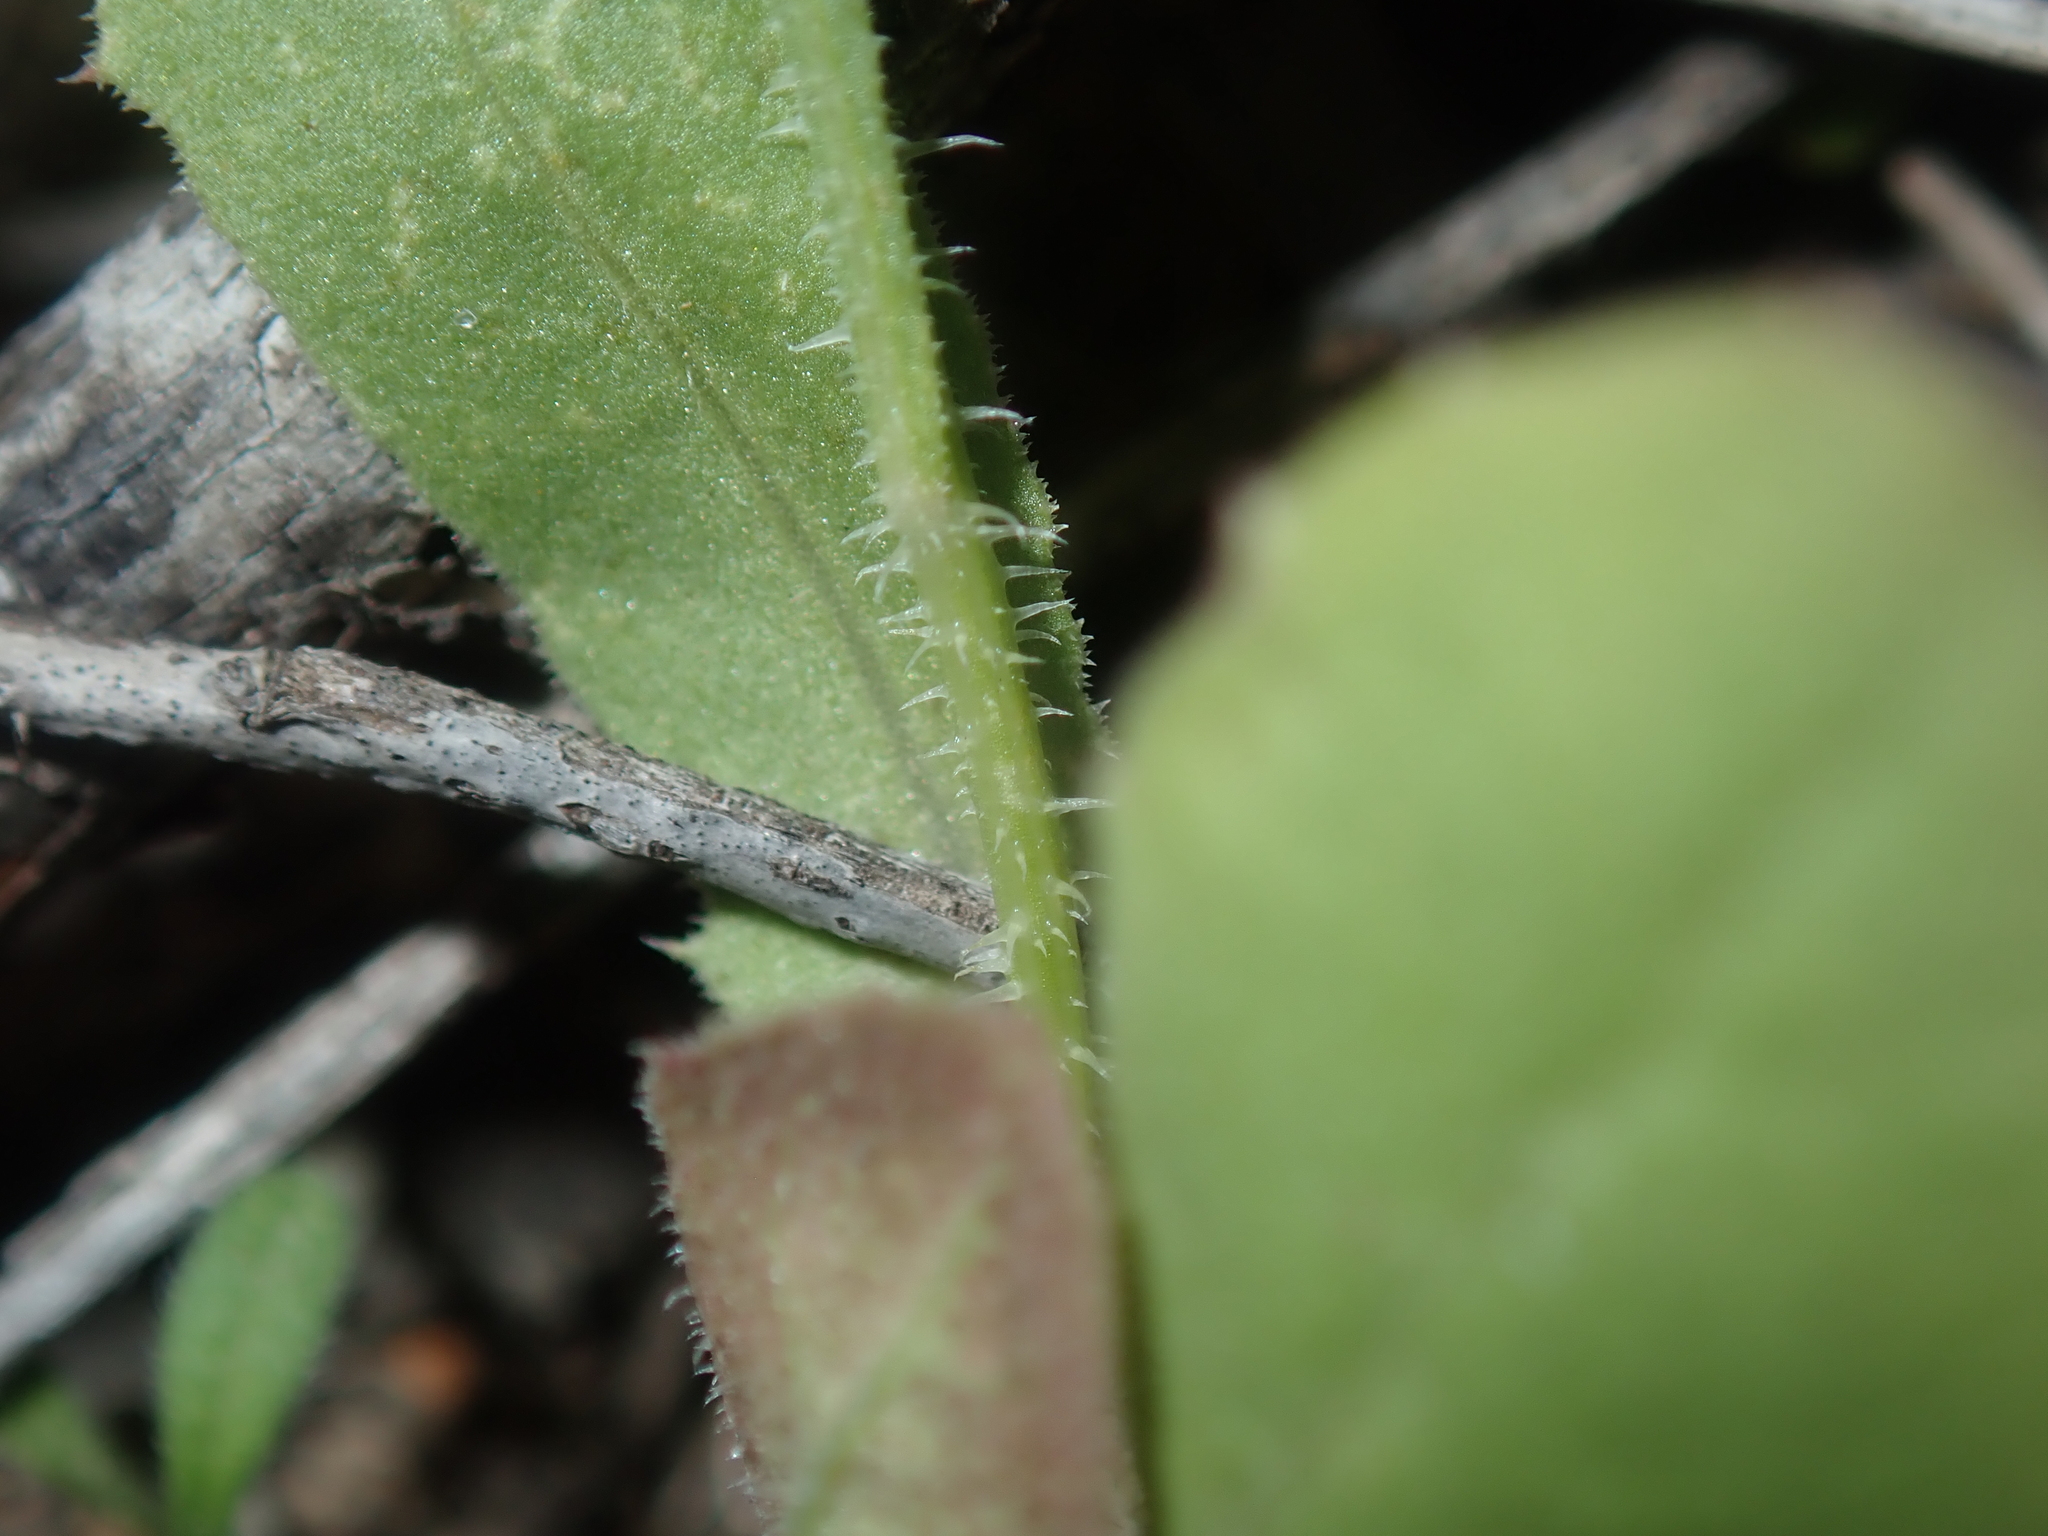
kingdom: Plantae
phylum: Tracheophyta
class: Magnoliopsida
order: Asterales
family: Asteraceae
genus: Urospermum
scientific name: Urospermum picroides
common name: False hawkbit
